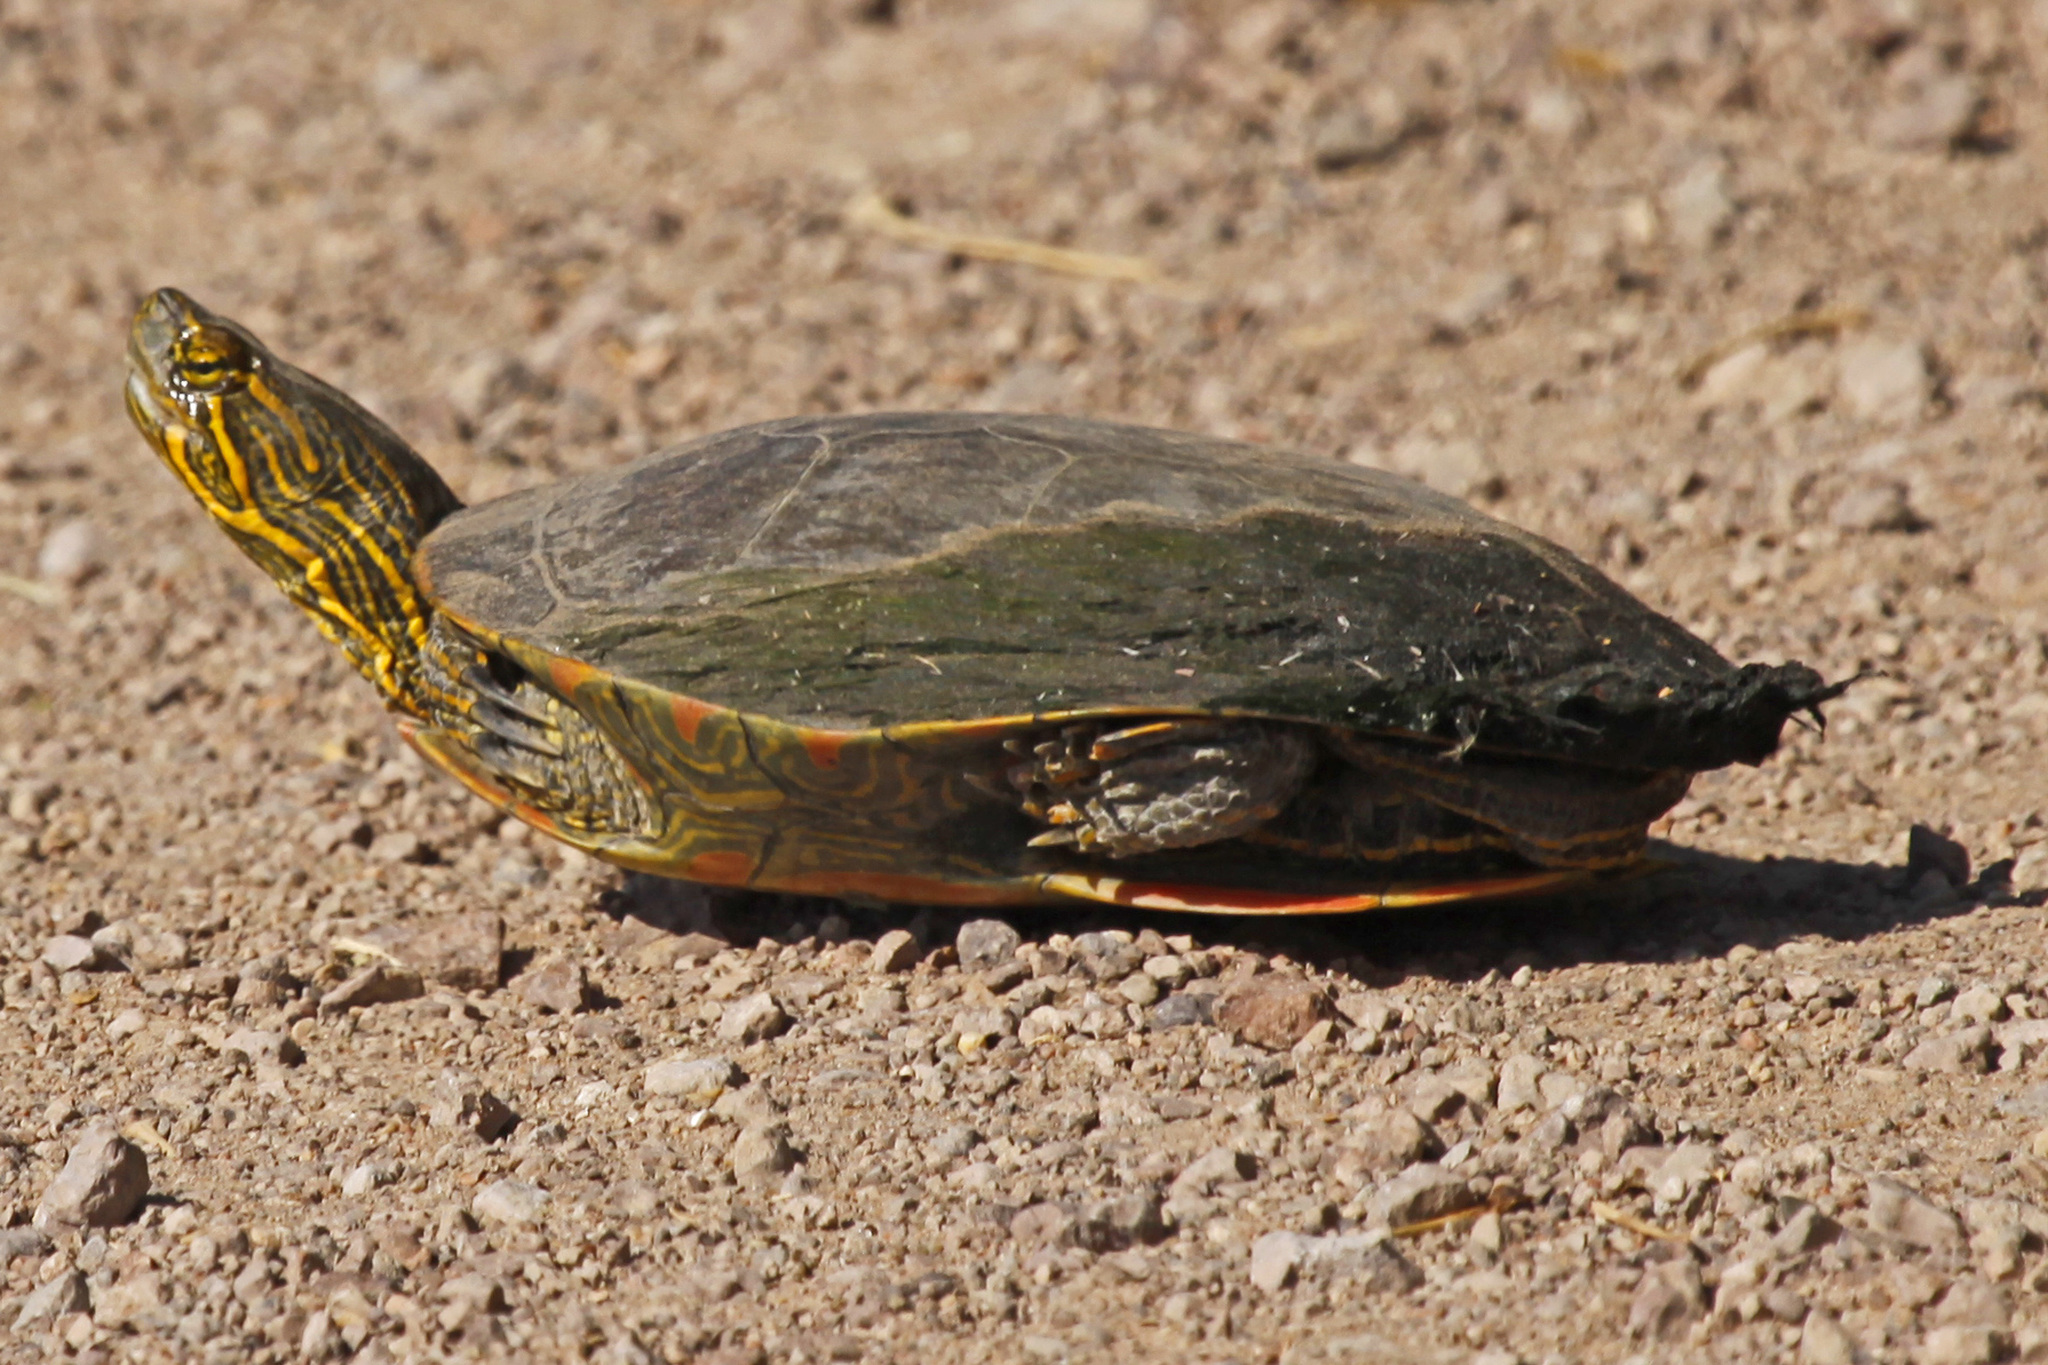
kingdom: Animalia
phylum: Chordata
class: Testudines
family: Emydidae
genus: Chrysemys
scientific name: Chrysemys picta
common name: Painted turtle
